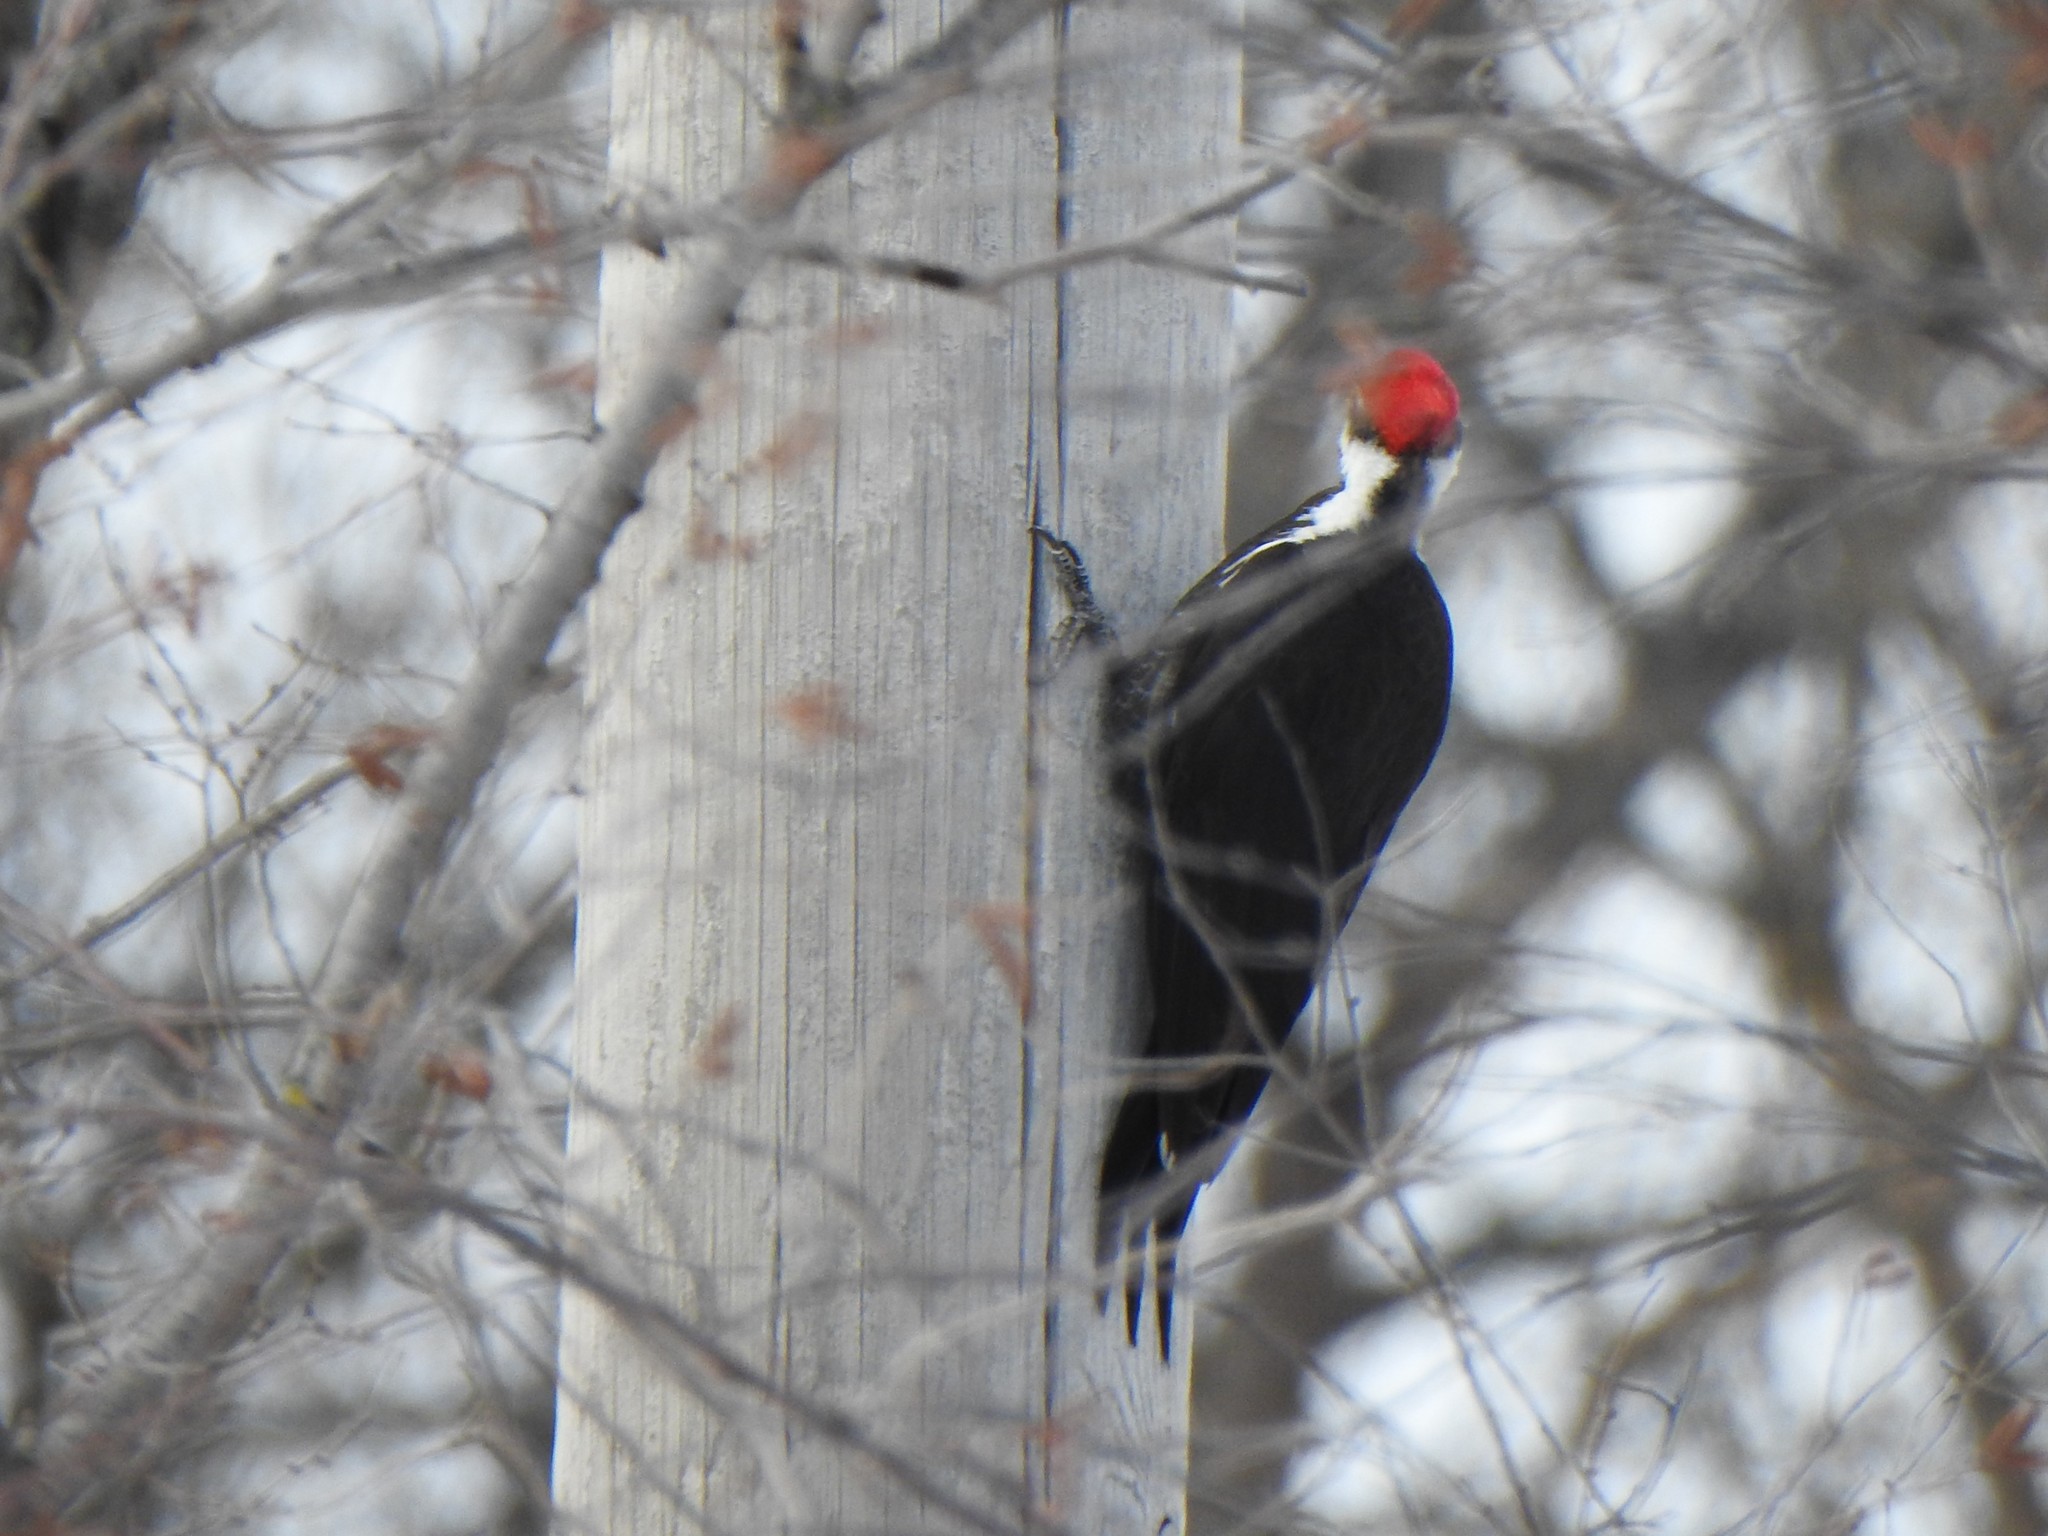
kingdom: Animalia
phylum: Chordata
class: Aves
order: Piciformes
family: Picidae
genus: Dryocopus
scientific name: Dryocopus pileatus
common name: Pileated woodpecker
